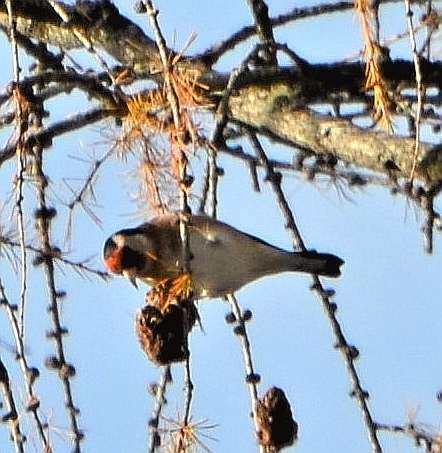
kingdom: Animalia
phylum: Chordata
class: Aves
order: Passeriformes
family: Fringillidae
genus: Carduelis
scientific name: Carduelis carduelis
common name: European goldfinch
